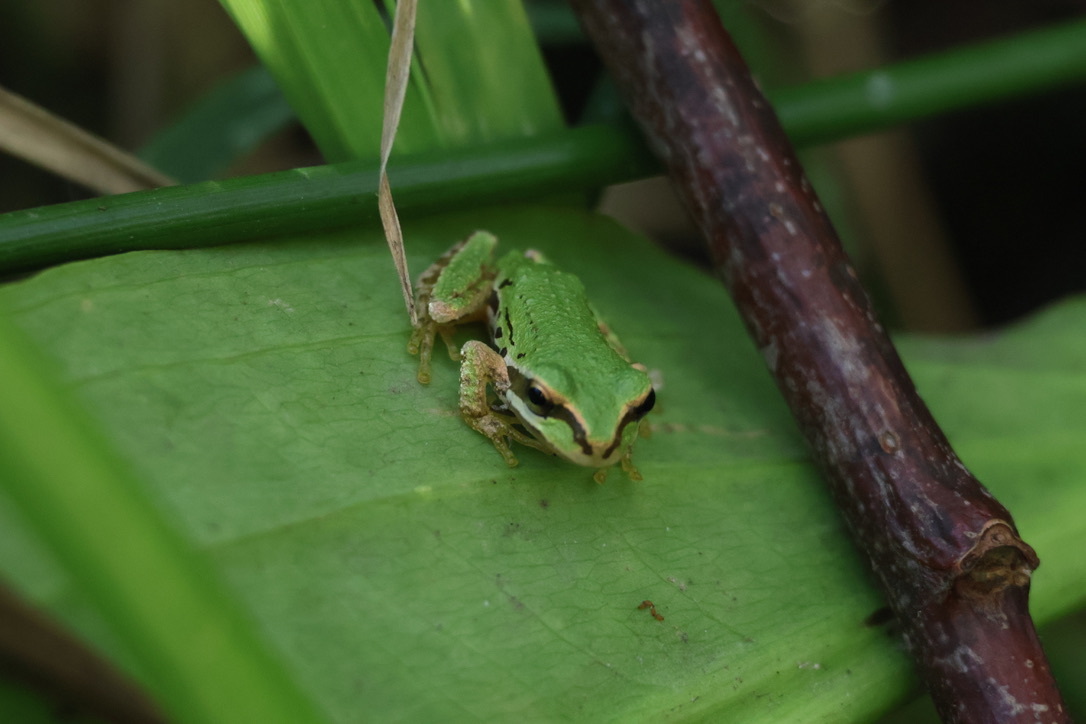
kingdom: Animalia
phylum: Chordata
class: Amphibia
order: Anura
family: Hylidae
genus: Pseudacris
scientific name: Pseudacris regilla
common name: Pacific chorus frog
